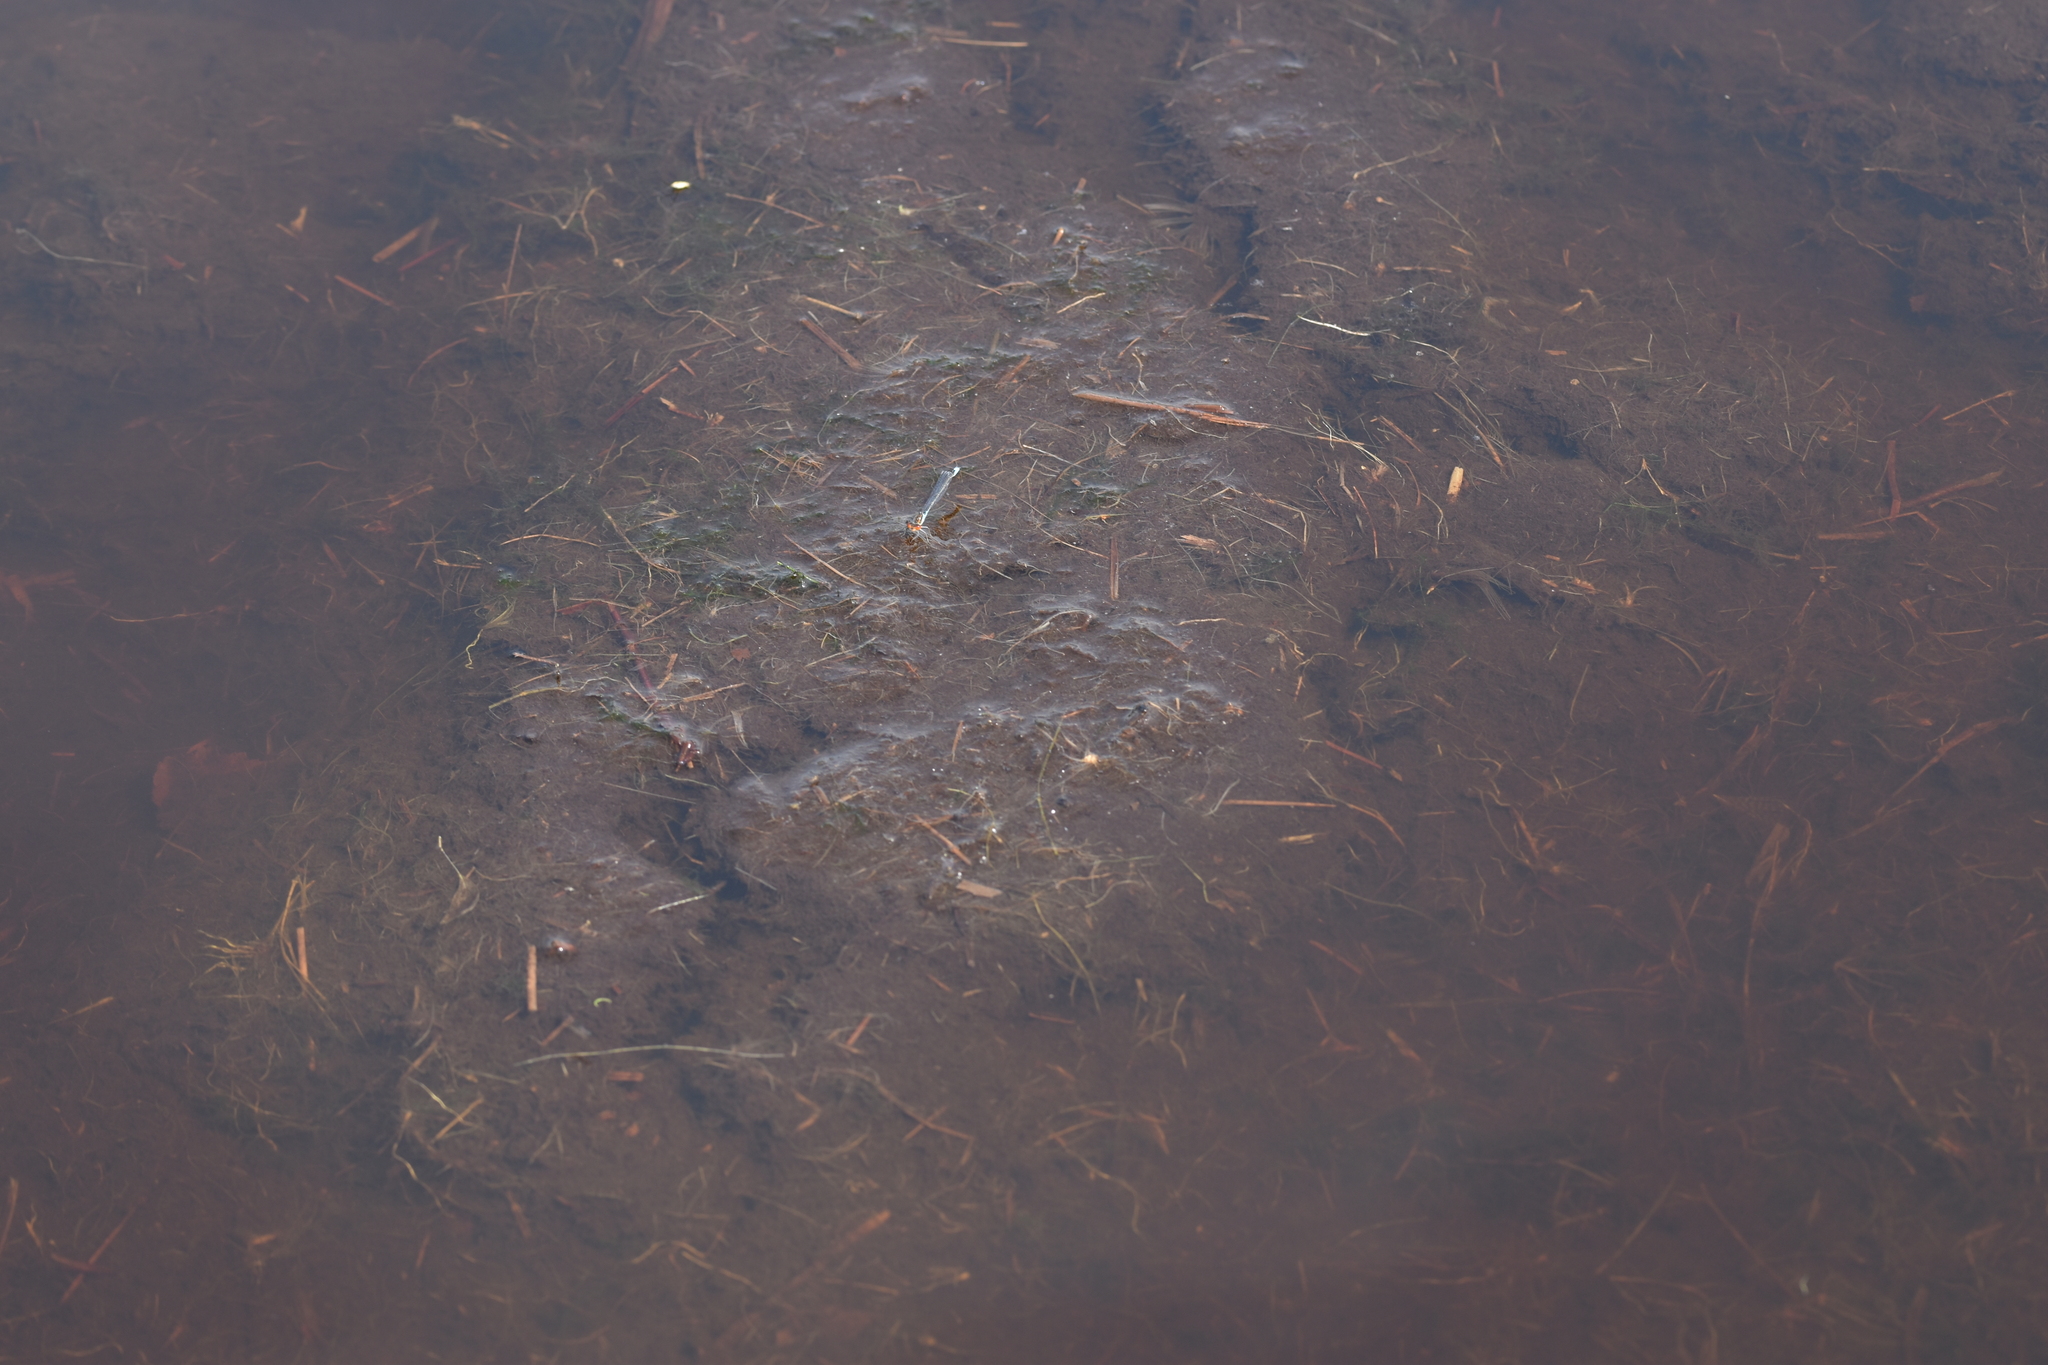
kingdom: Animalia
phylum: Arthropoda
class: Insecta
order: Odonata
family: Coenagrionidae
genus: Erythromma
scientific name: Erythromma viridulum
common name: Small red-eyed damselfly
